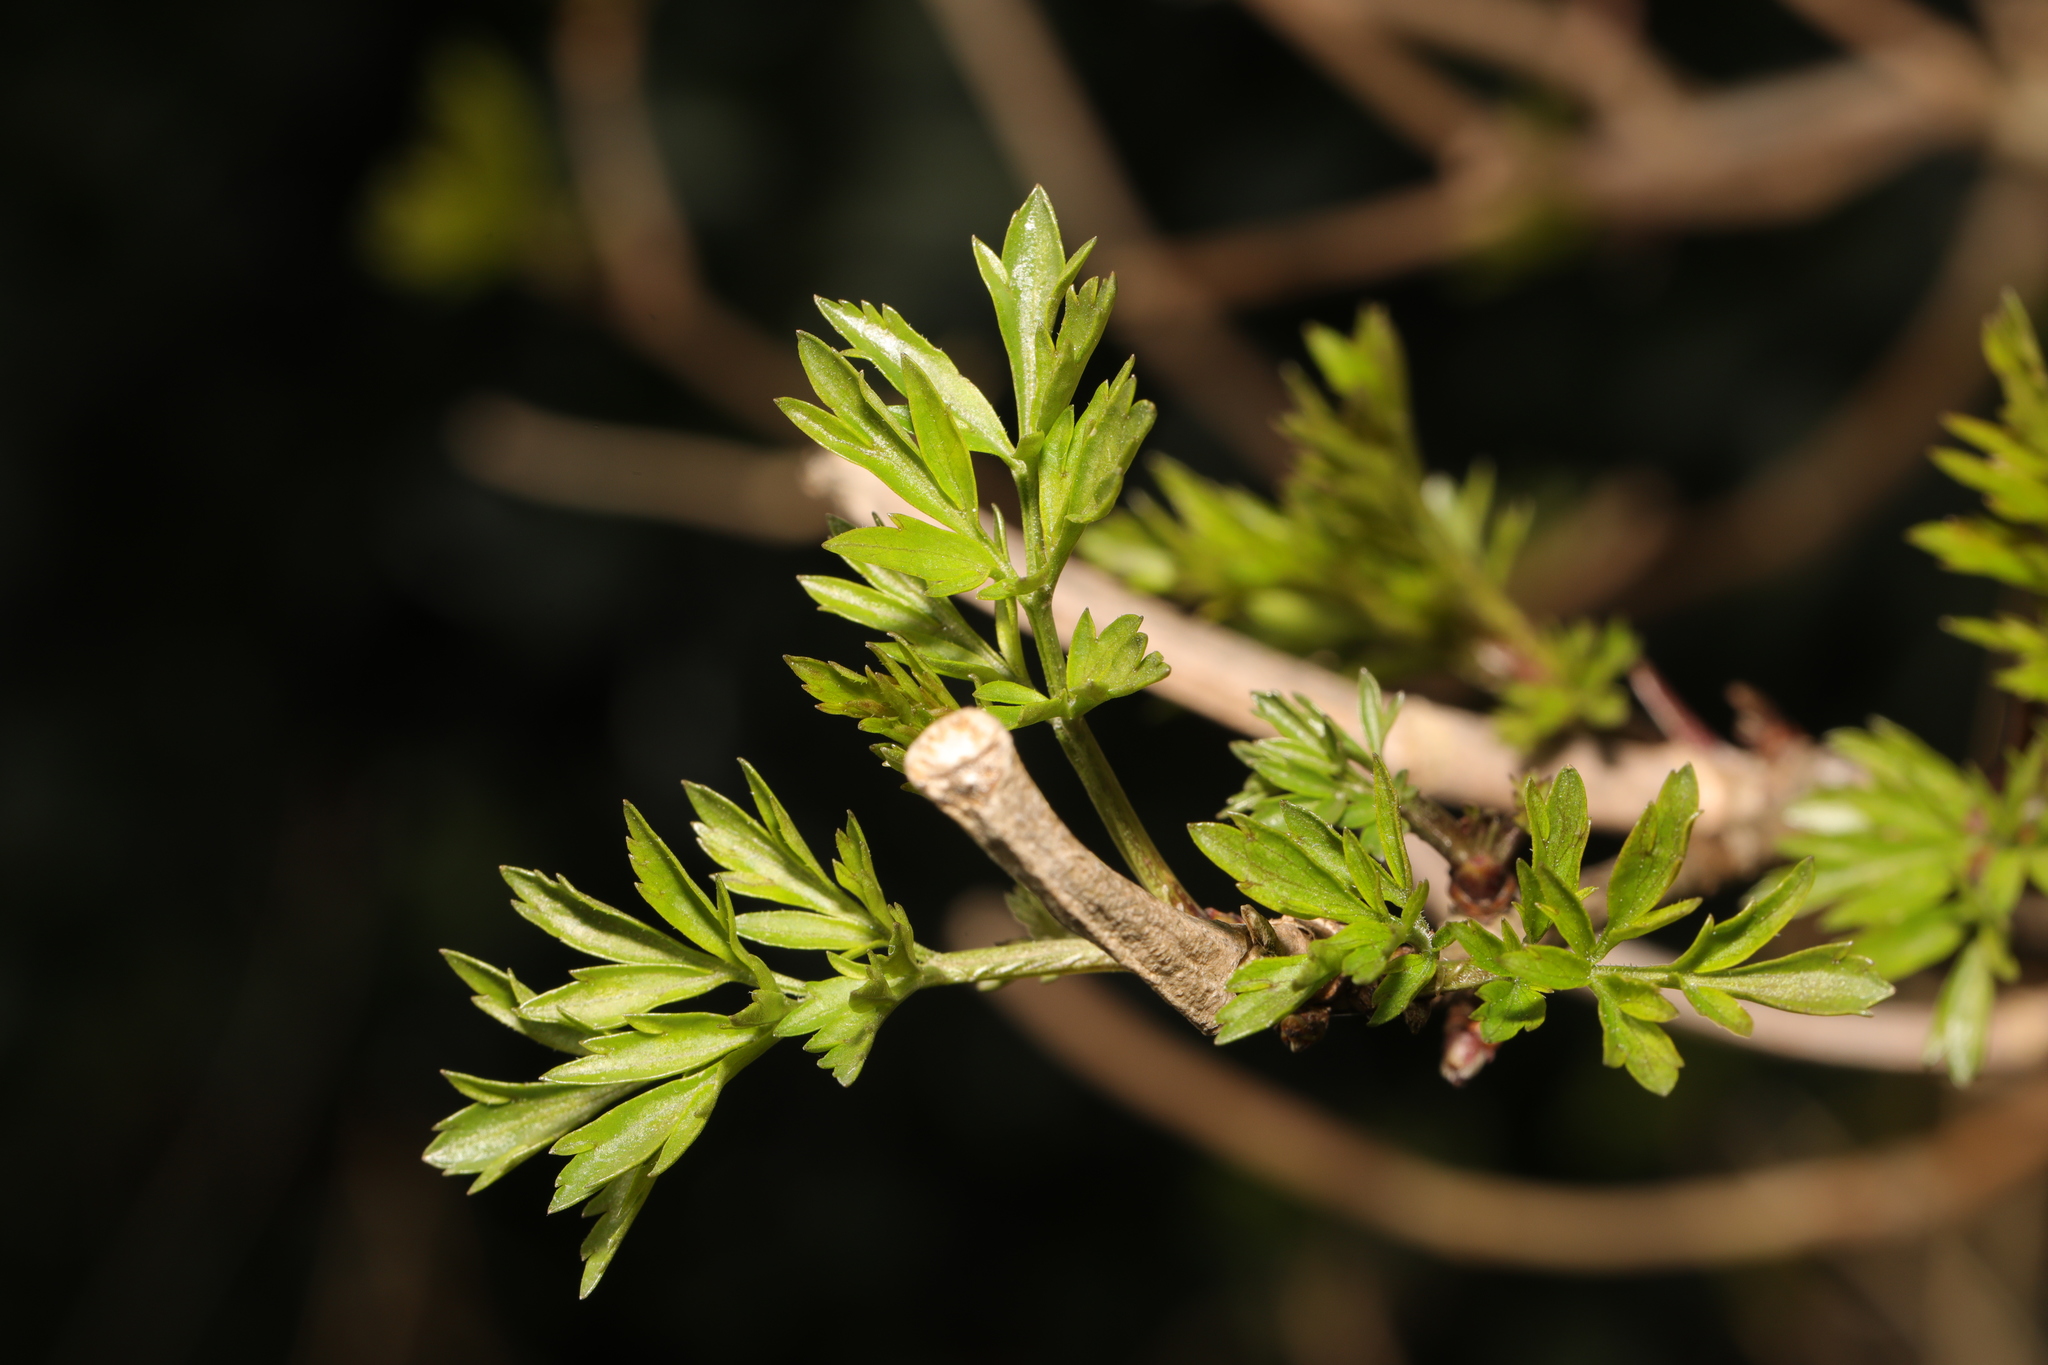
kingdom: Plantae
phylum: Tracheophyta
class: Magnoliopsida
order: Dipsacales
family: Viburnaceae
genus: Sambucus
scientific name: Sambucus nigra
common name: Elder
